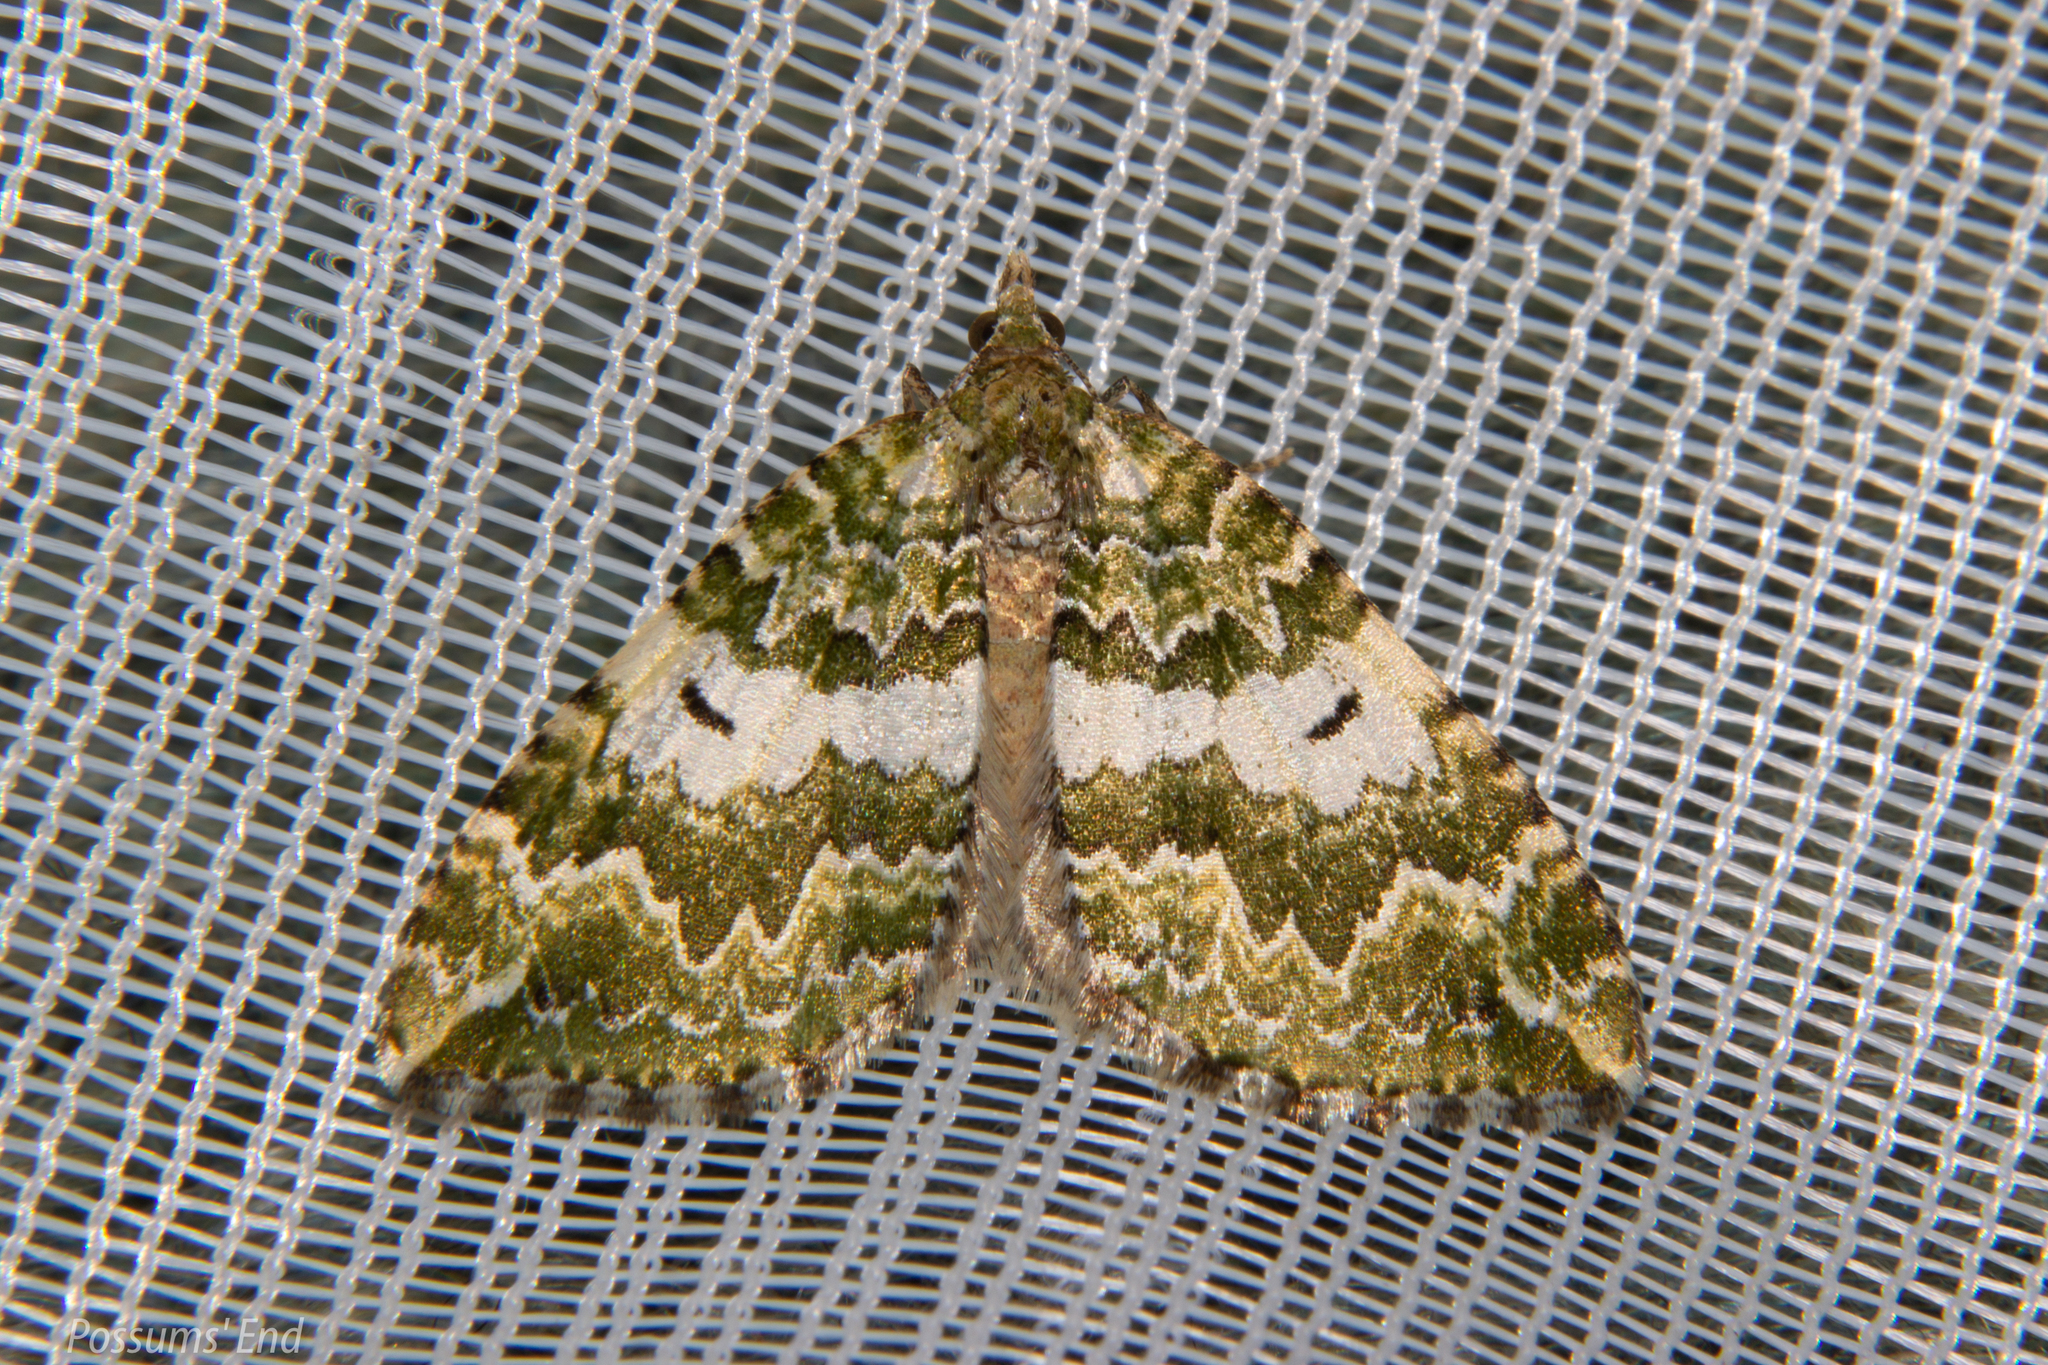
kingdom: Animalia
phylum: Arthropoda
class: Insecta
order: Lepidoptera
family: Geometridae
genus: Asaphodes
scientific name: Asaphodes beata
